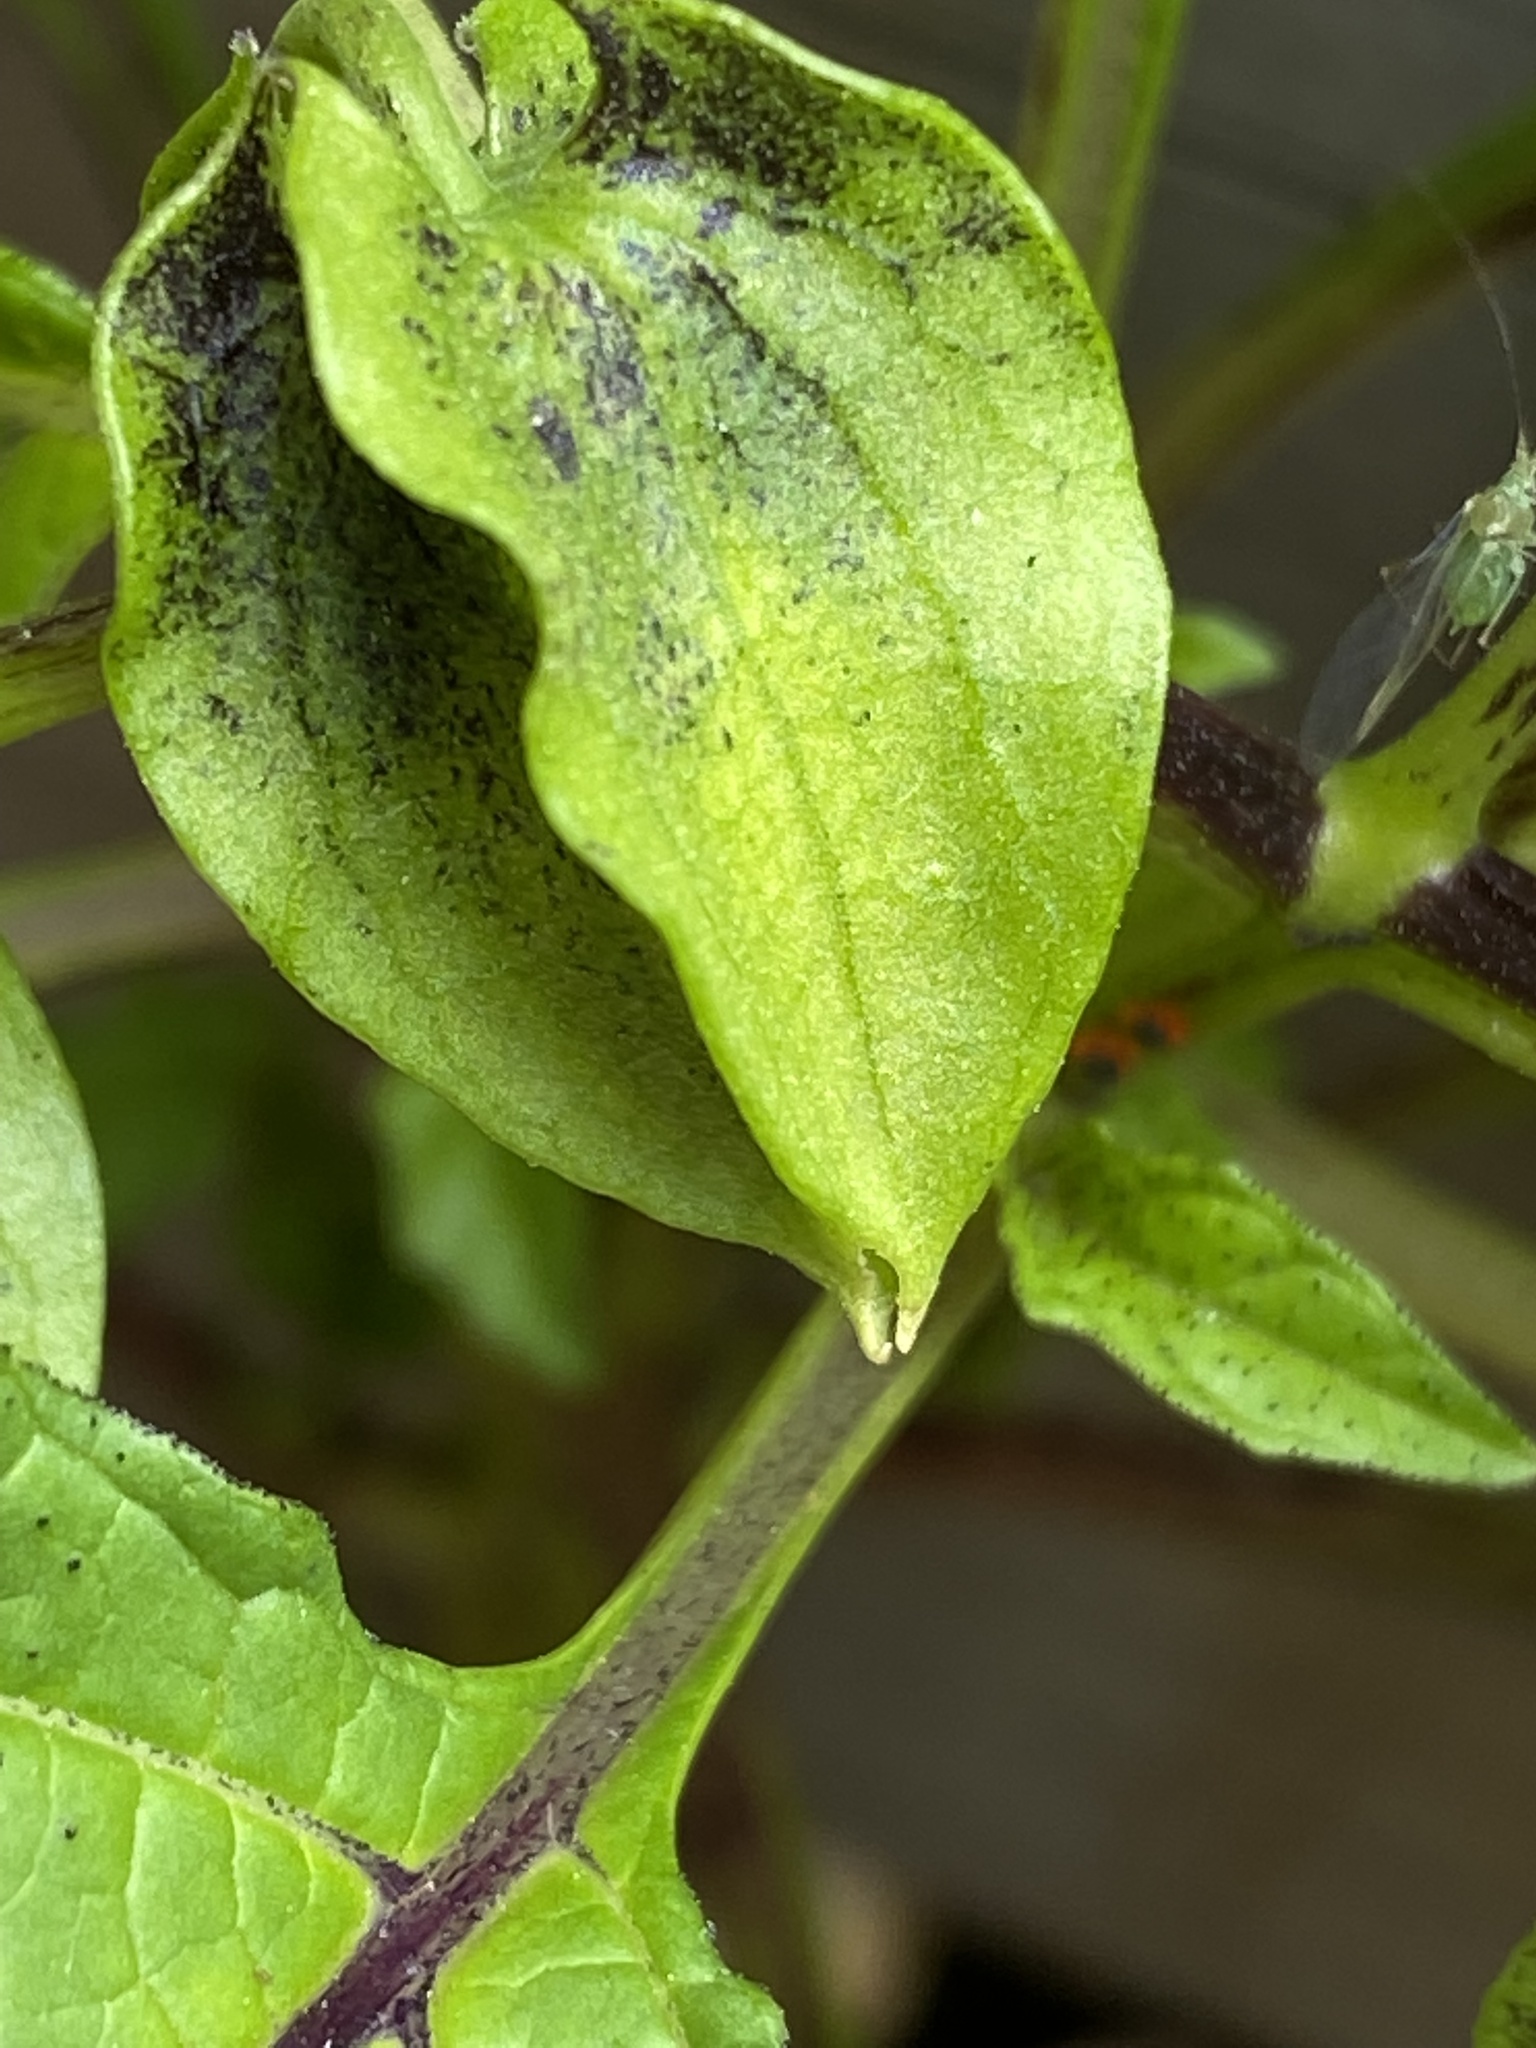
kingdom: Plantae
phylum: Tracheophyta
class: Magnoliopsida
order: Solanales
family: Solanaceae
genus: Nicandra
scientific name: Nicandra physalodes
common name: Apple-of-peru
